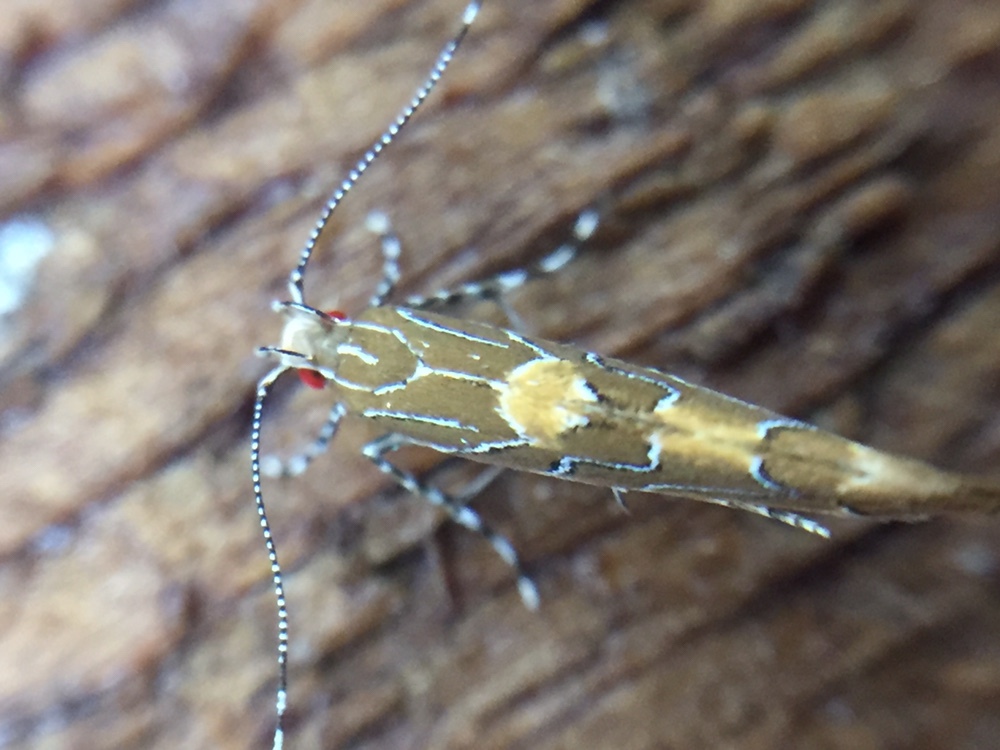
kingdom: Animalia
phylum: Arthropoda
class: Insecta
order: Lepidoptera
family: Cosmopterigidae
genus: Pyroderces
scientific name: Pyroderces apparitella
